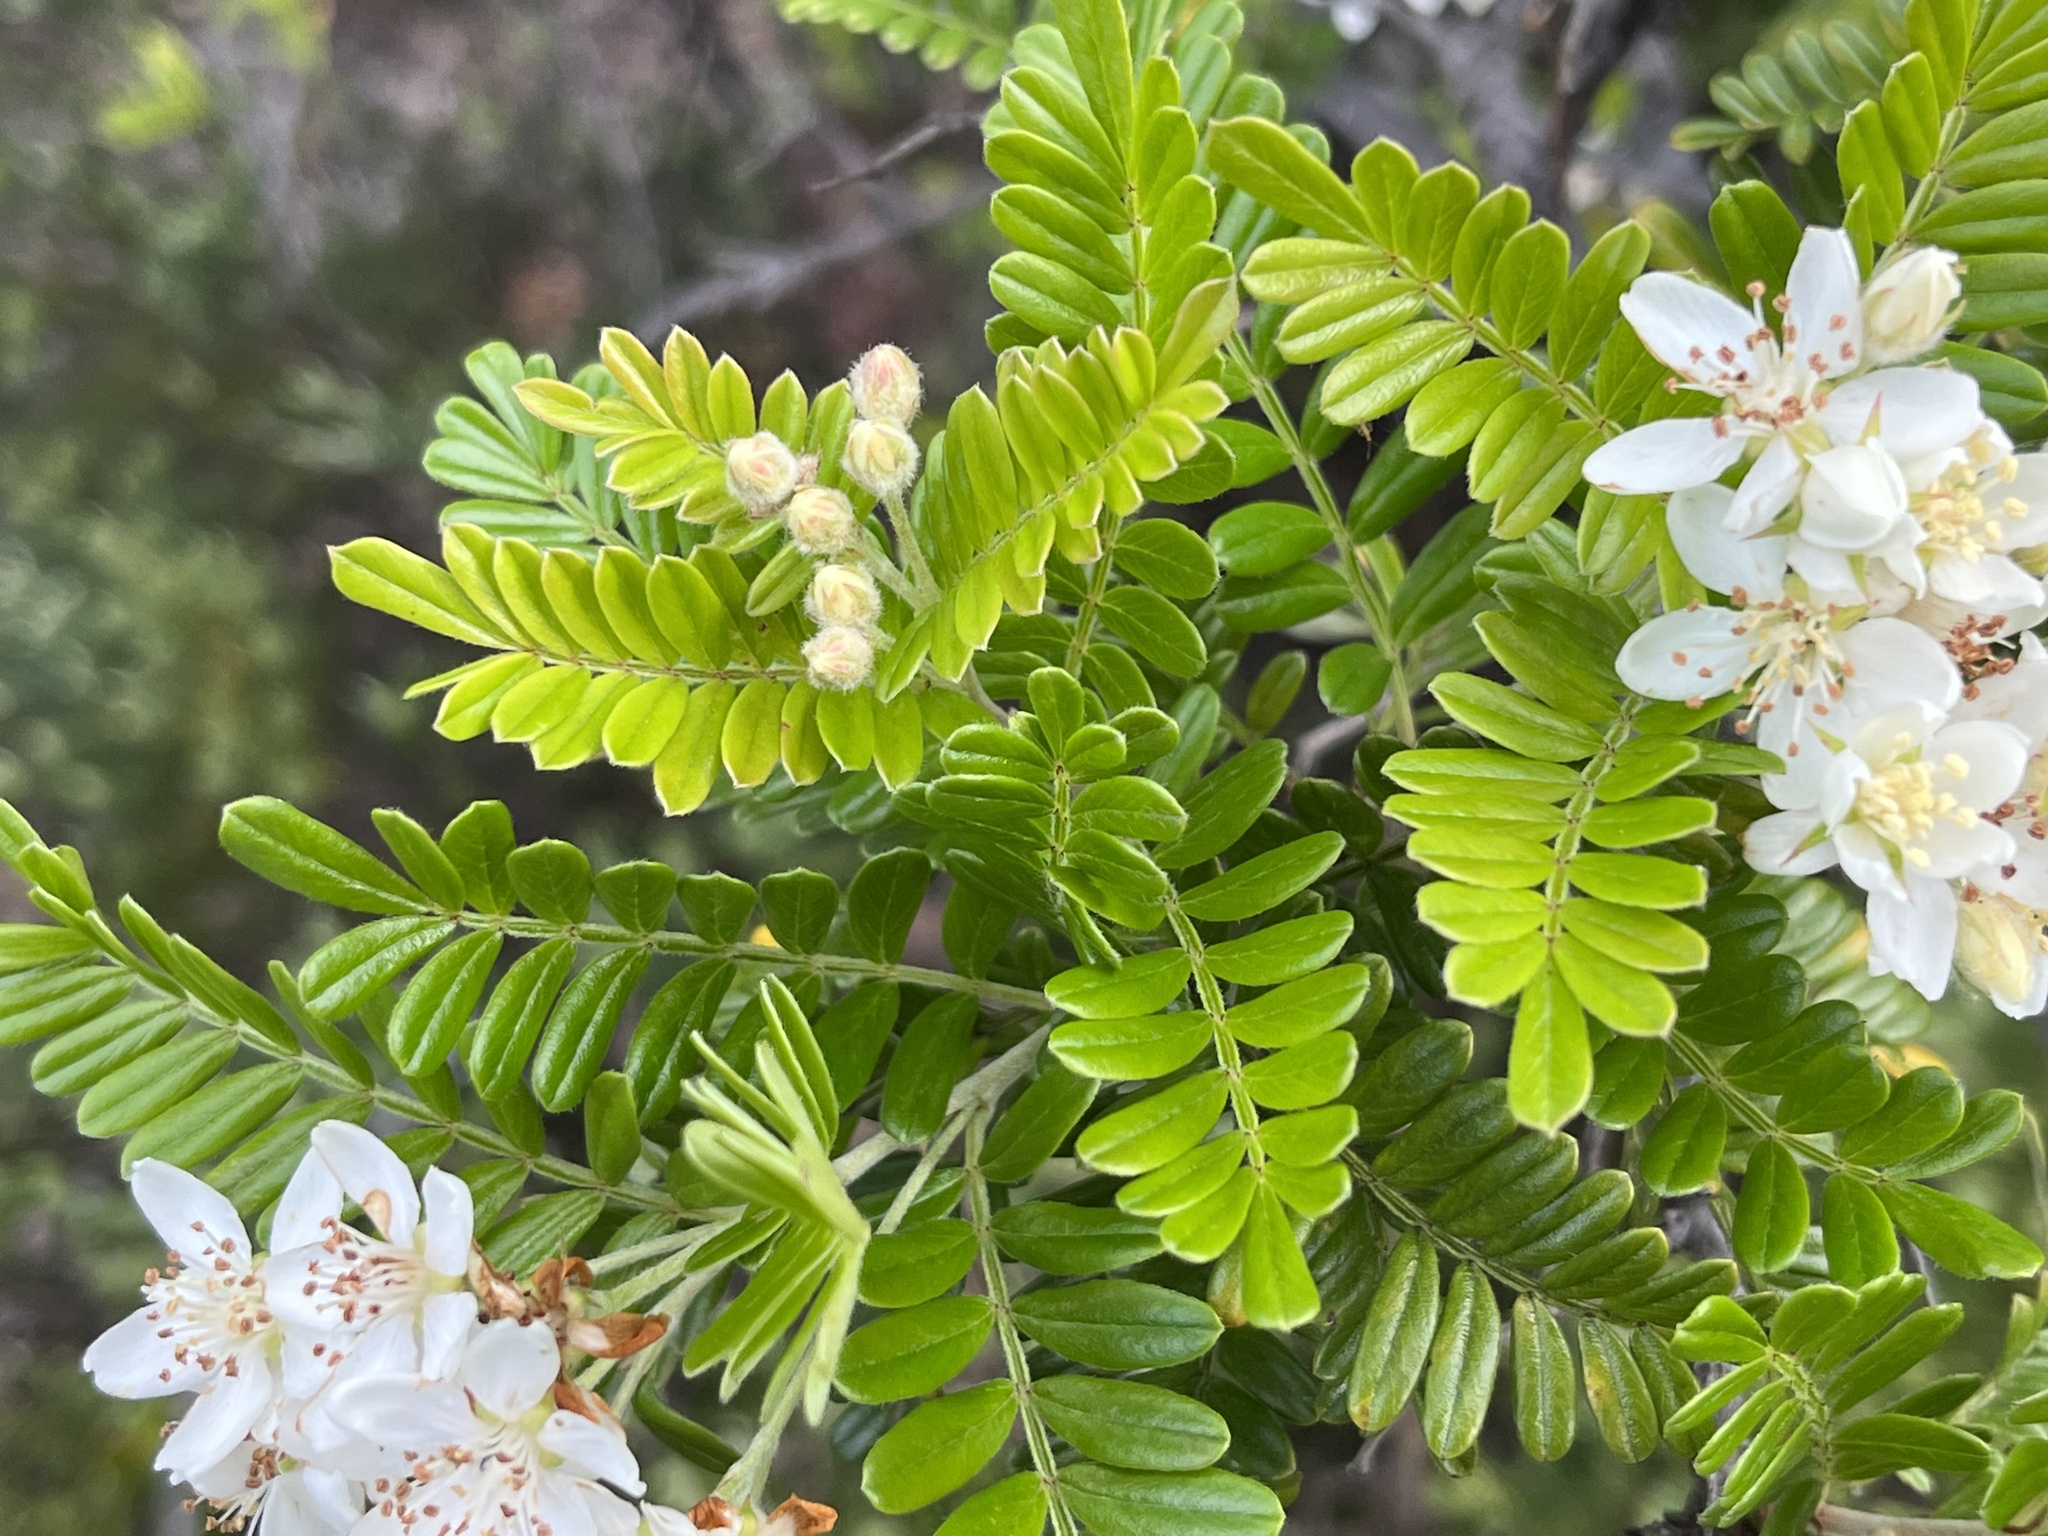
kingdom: Plantae
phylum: Tracheophyta
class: Magnoliopsida
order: Rosales
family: Rosaceae
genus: Osteomeles
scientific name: Osteomeles anthyllidifolia
